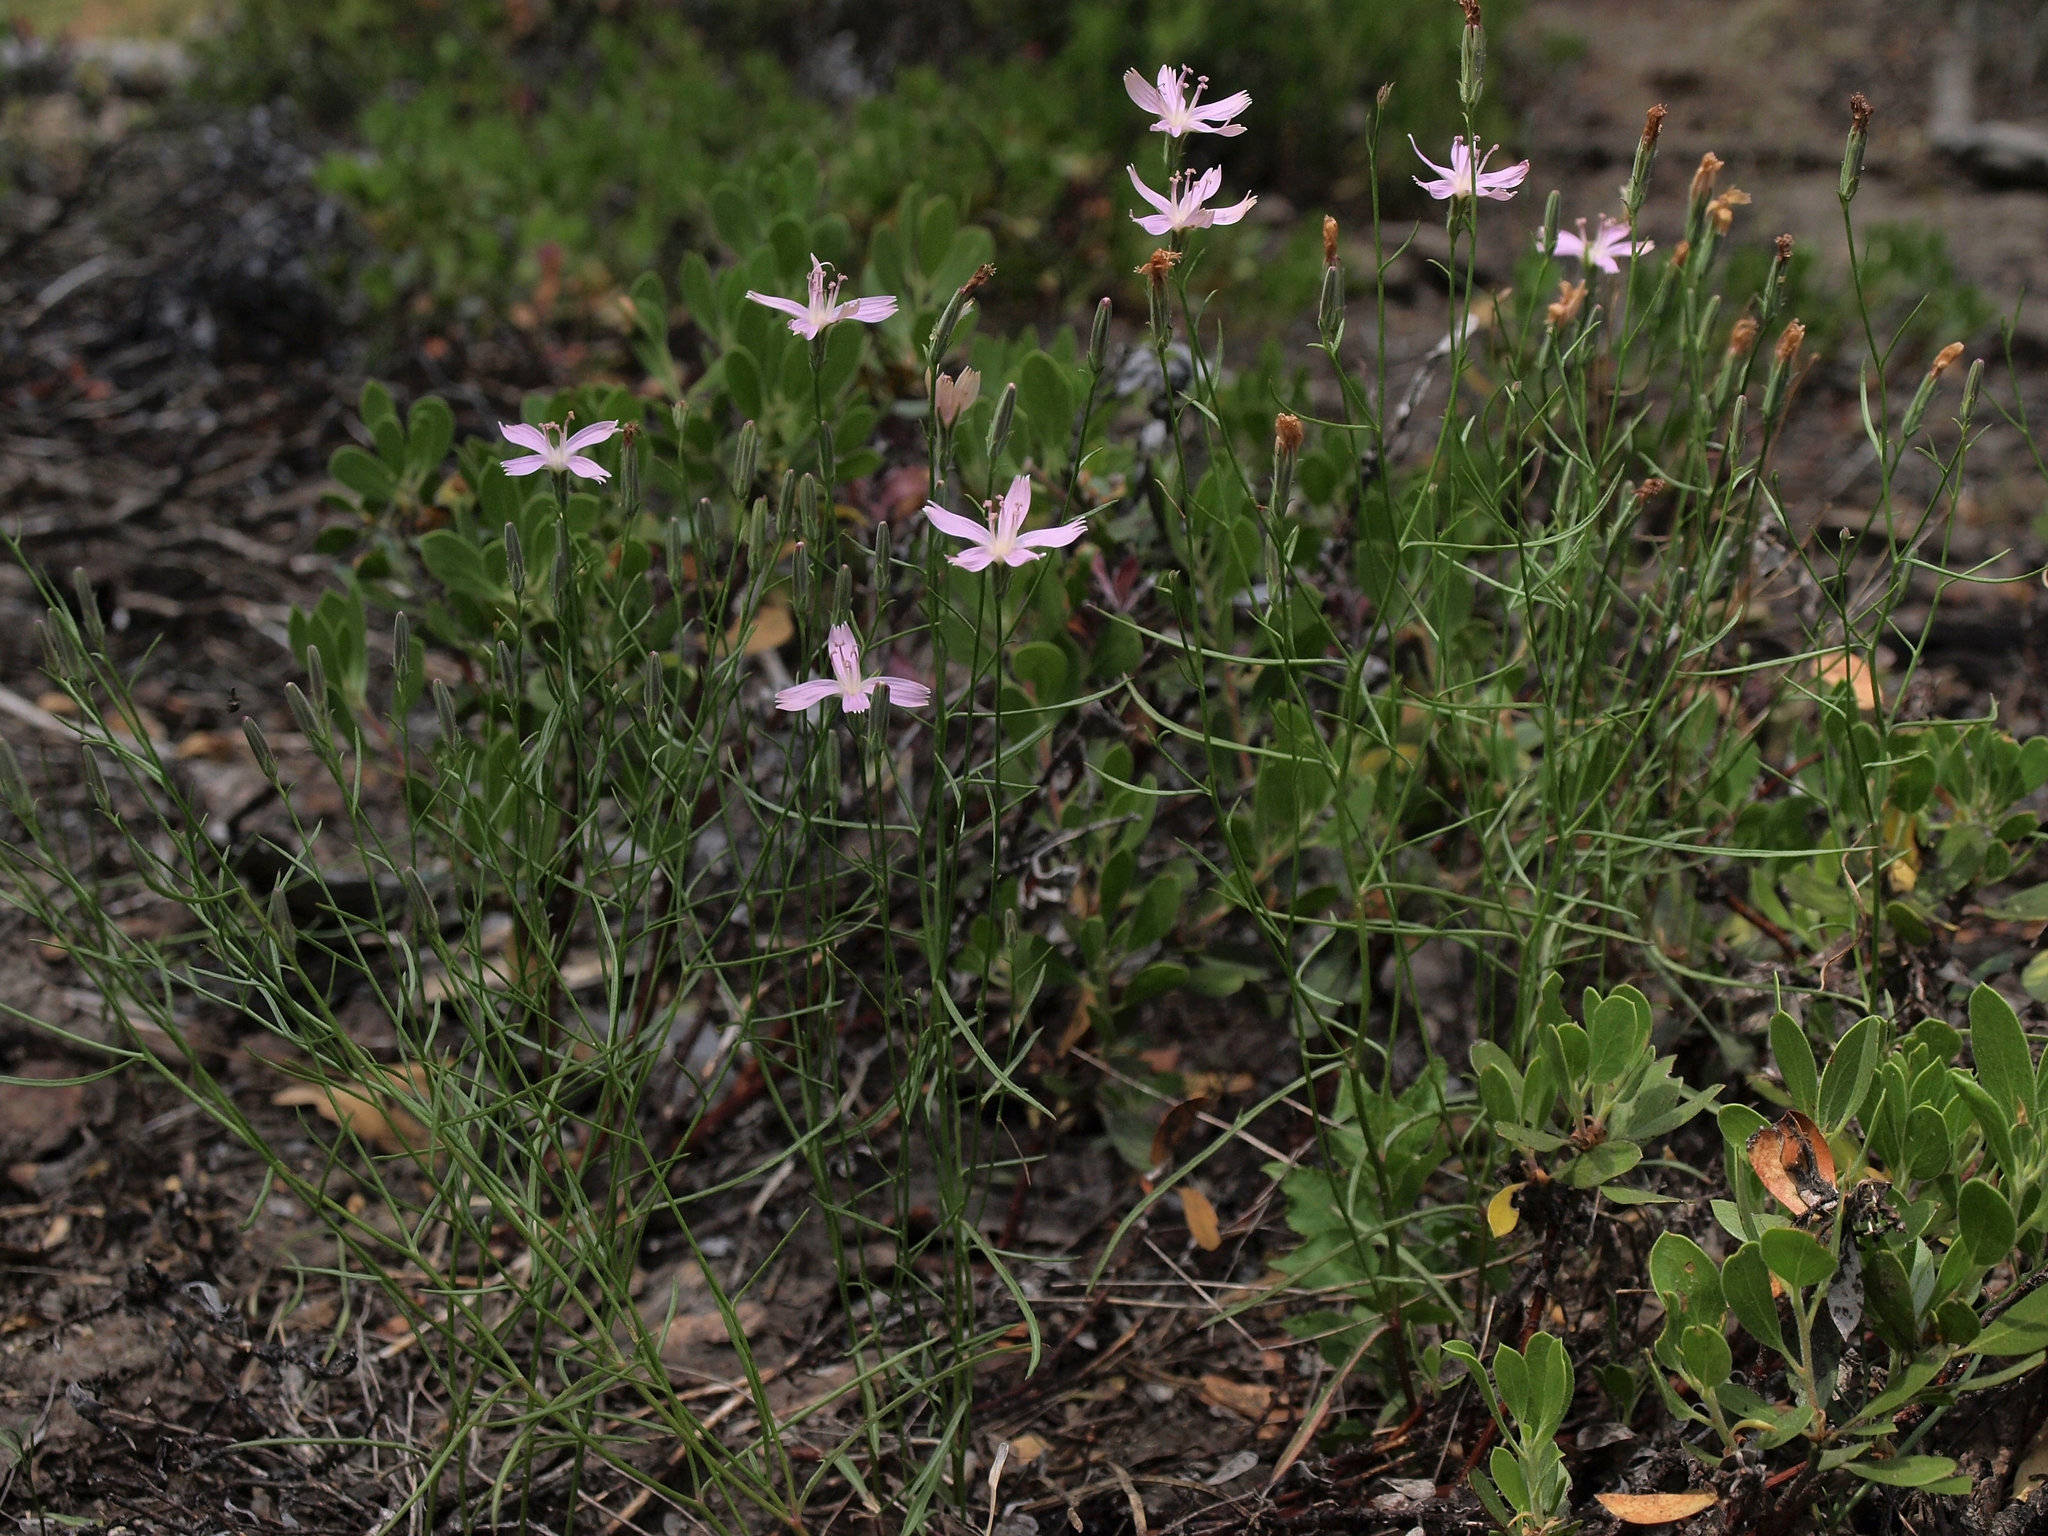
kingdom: Plantae
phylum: Tracheophyta
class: Magnoliopsida
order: Asterales
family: Asteraceae
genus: Stephanomeria
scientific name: Stephanomeria tenuifolia
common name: Slender wirelettuce
